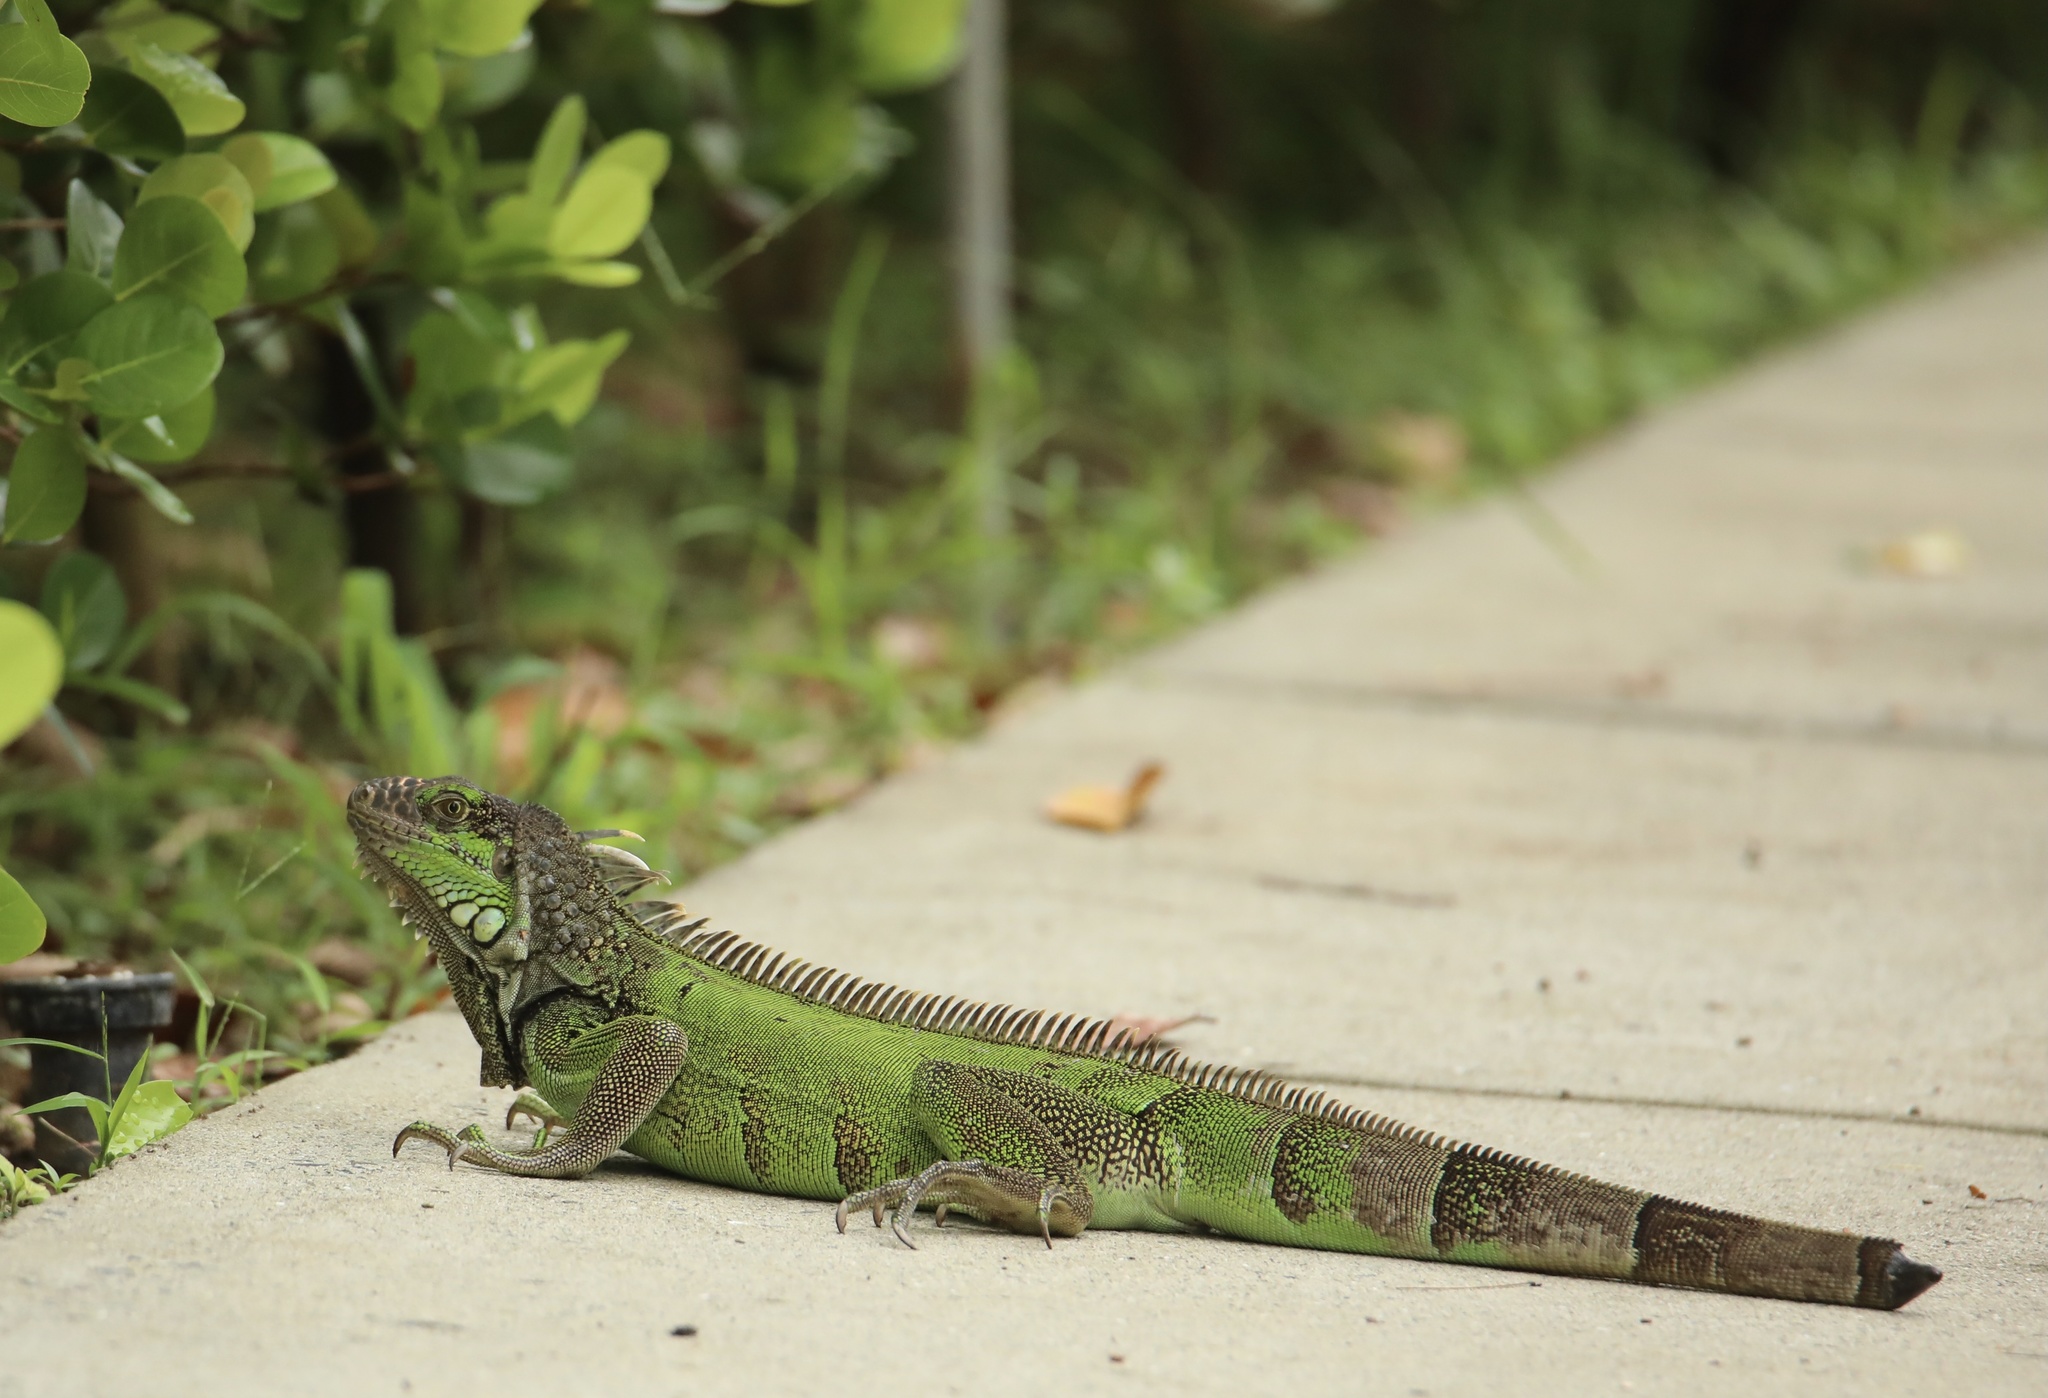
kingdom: Animalia
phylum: Chordata
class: Squamata
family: Iguanidae
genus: Iguana
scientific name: Iguana iguana
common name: Green iguana
